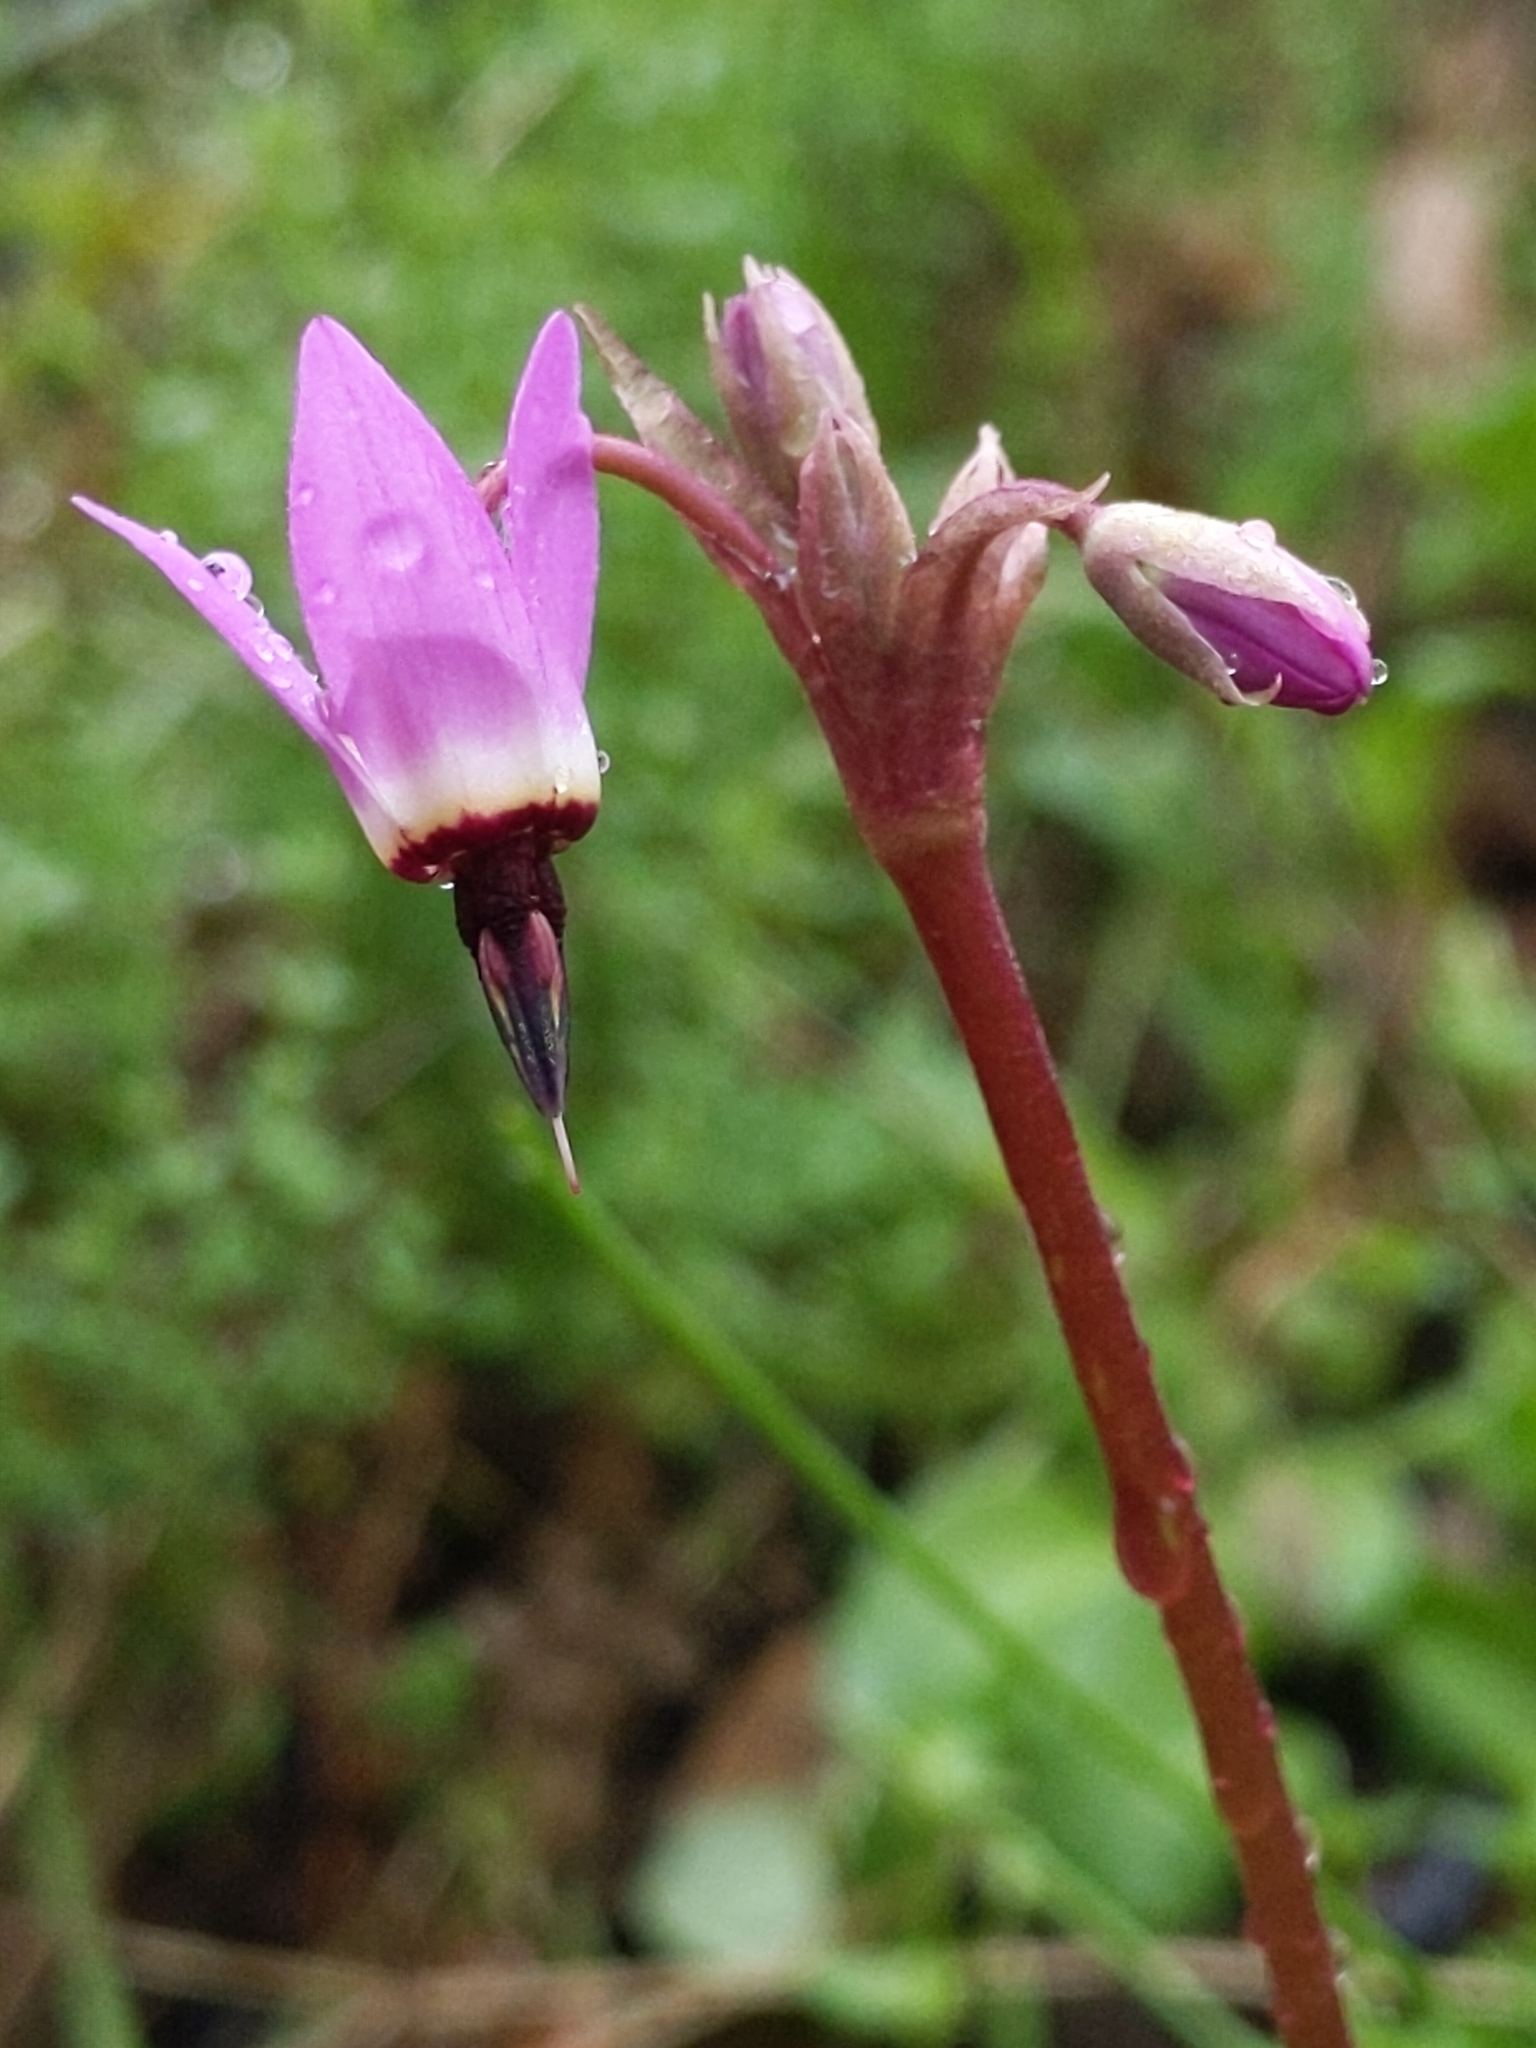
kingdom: Plantae
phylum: Tracheophyta
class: Magnoliopsida
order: Ericales
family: Primulaceae
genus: Dodecatheon
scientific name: Dodecatheon hendersonii
